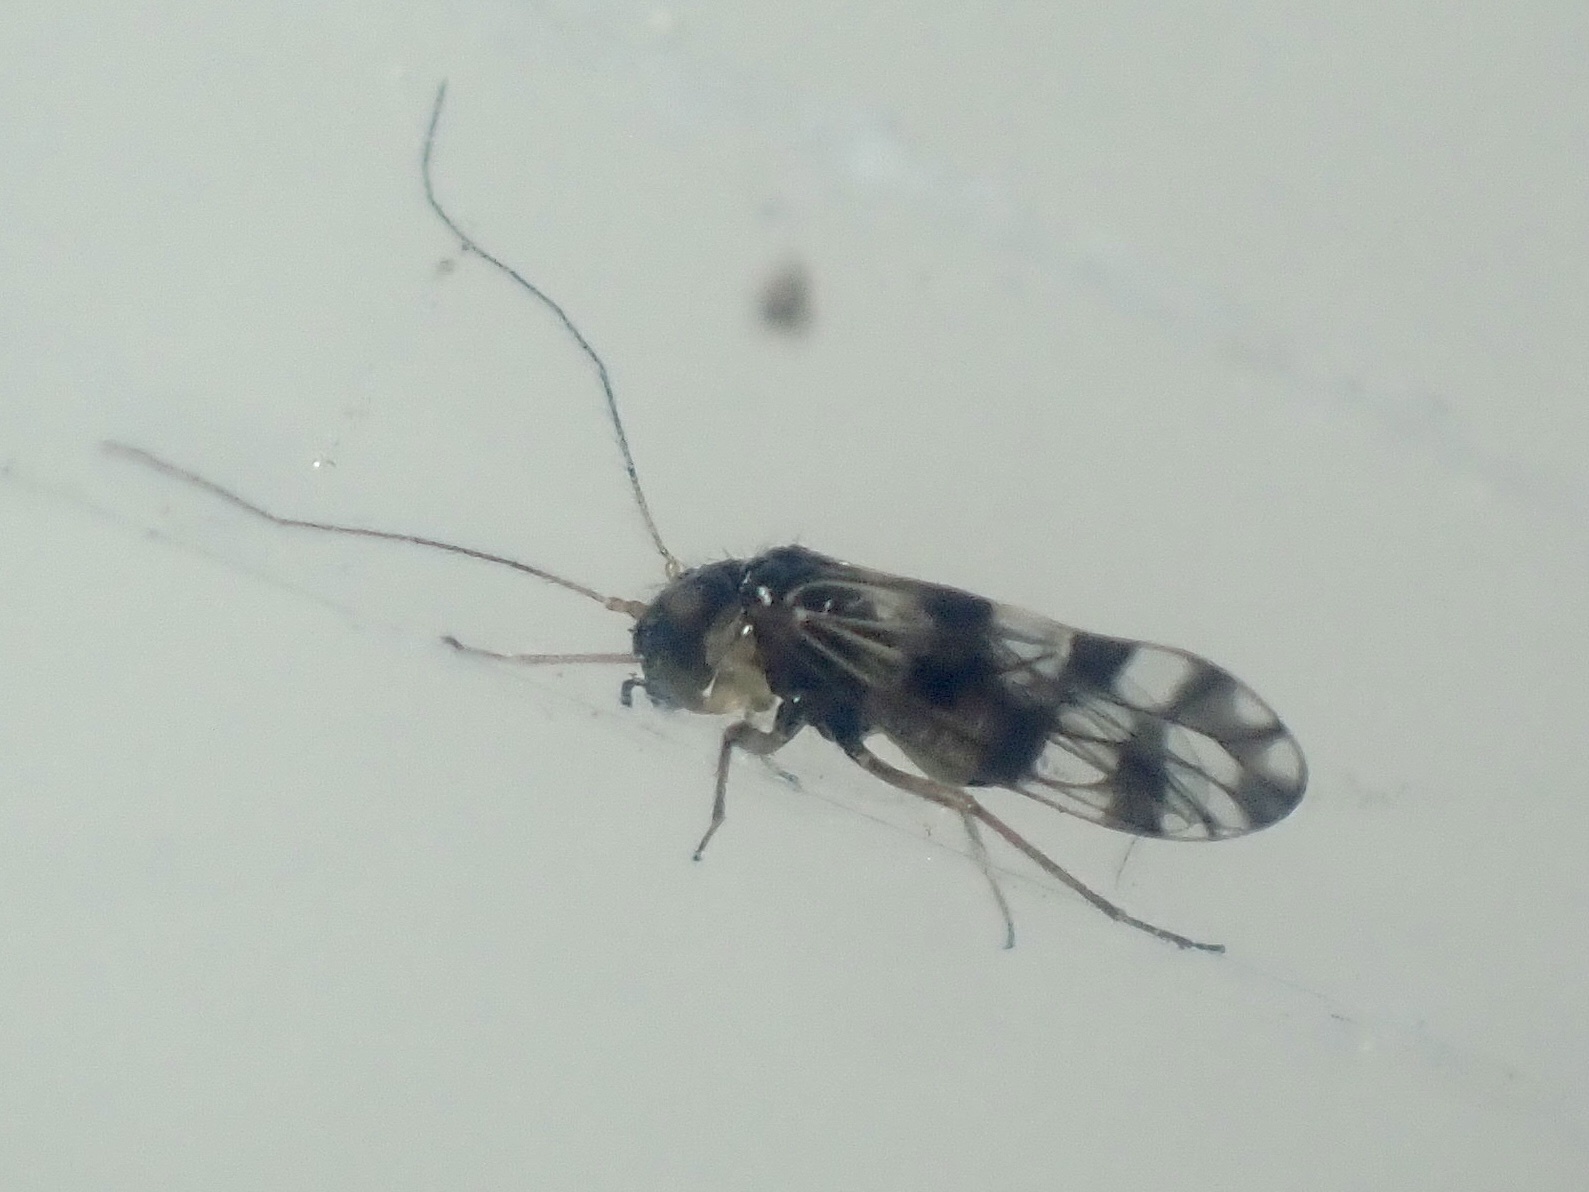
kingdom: Animalia
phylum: Arthropoda
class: Insecta
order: Psocodea
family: Elipsocidae
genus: Propsocus
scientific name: Propsocus pulchripennis
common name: Bark louse
